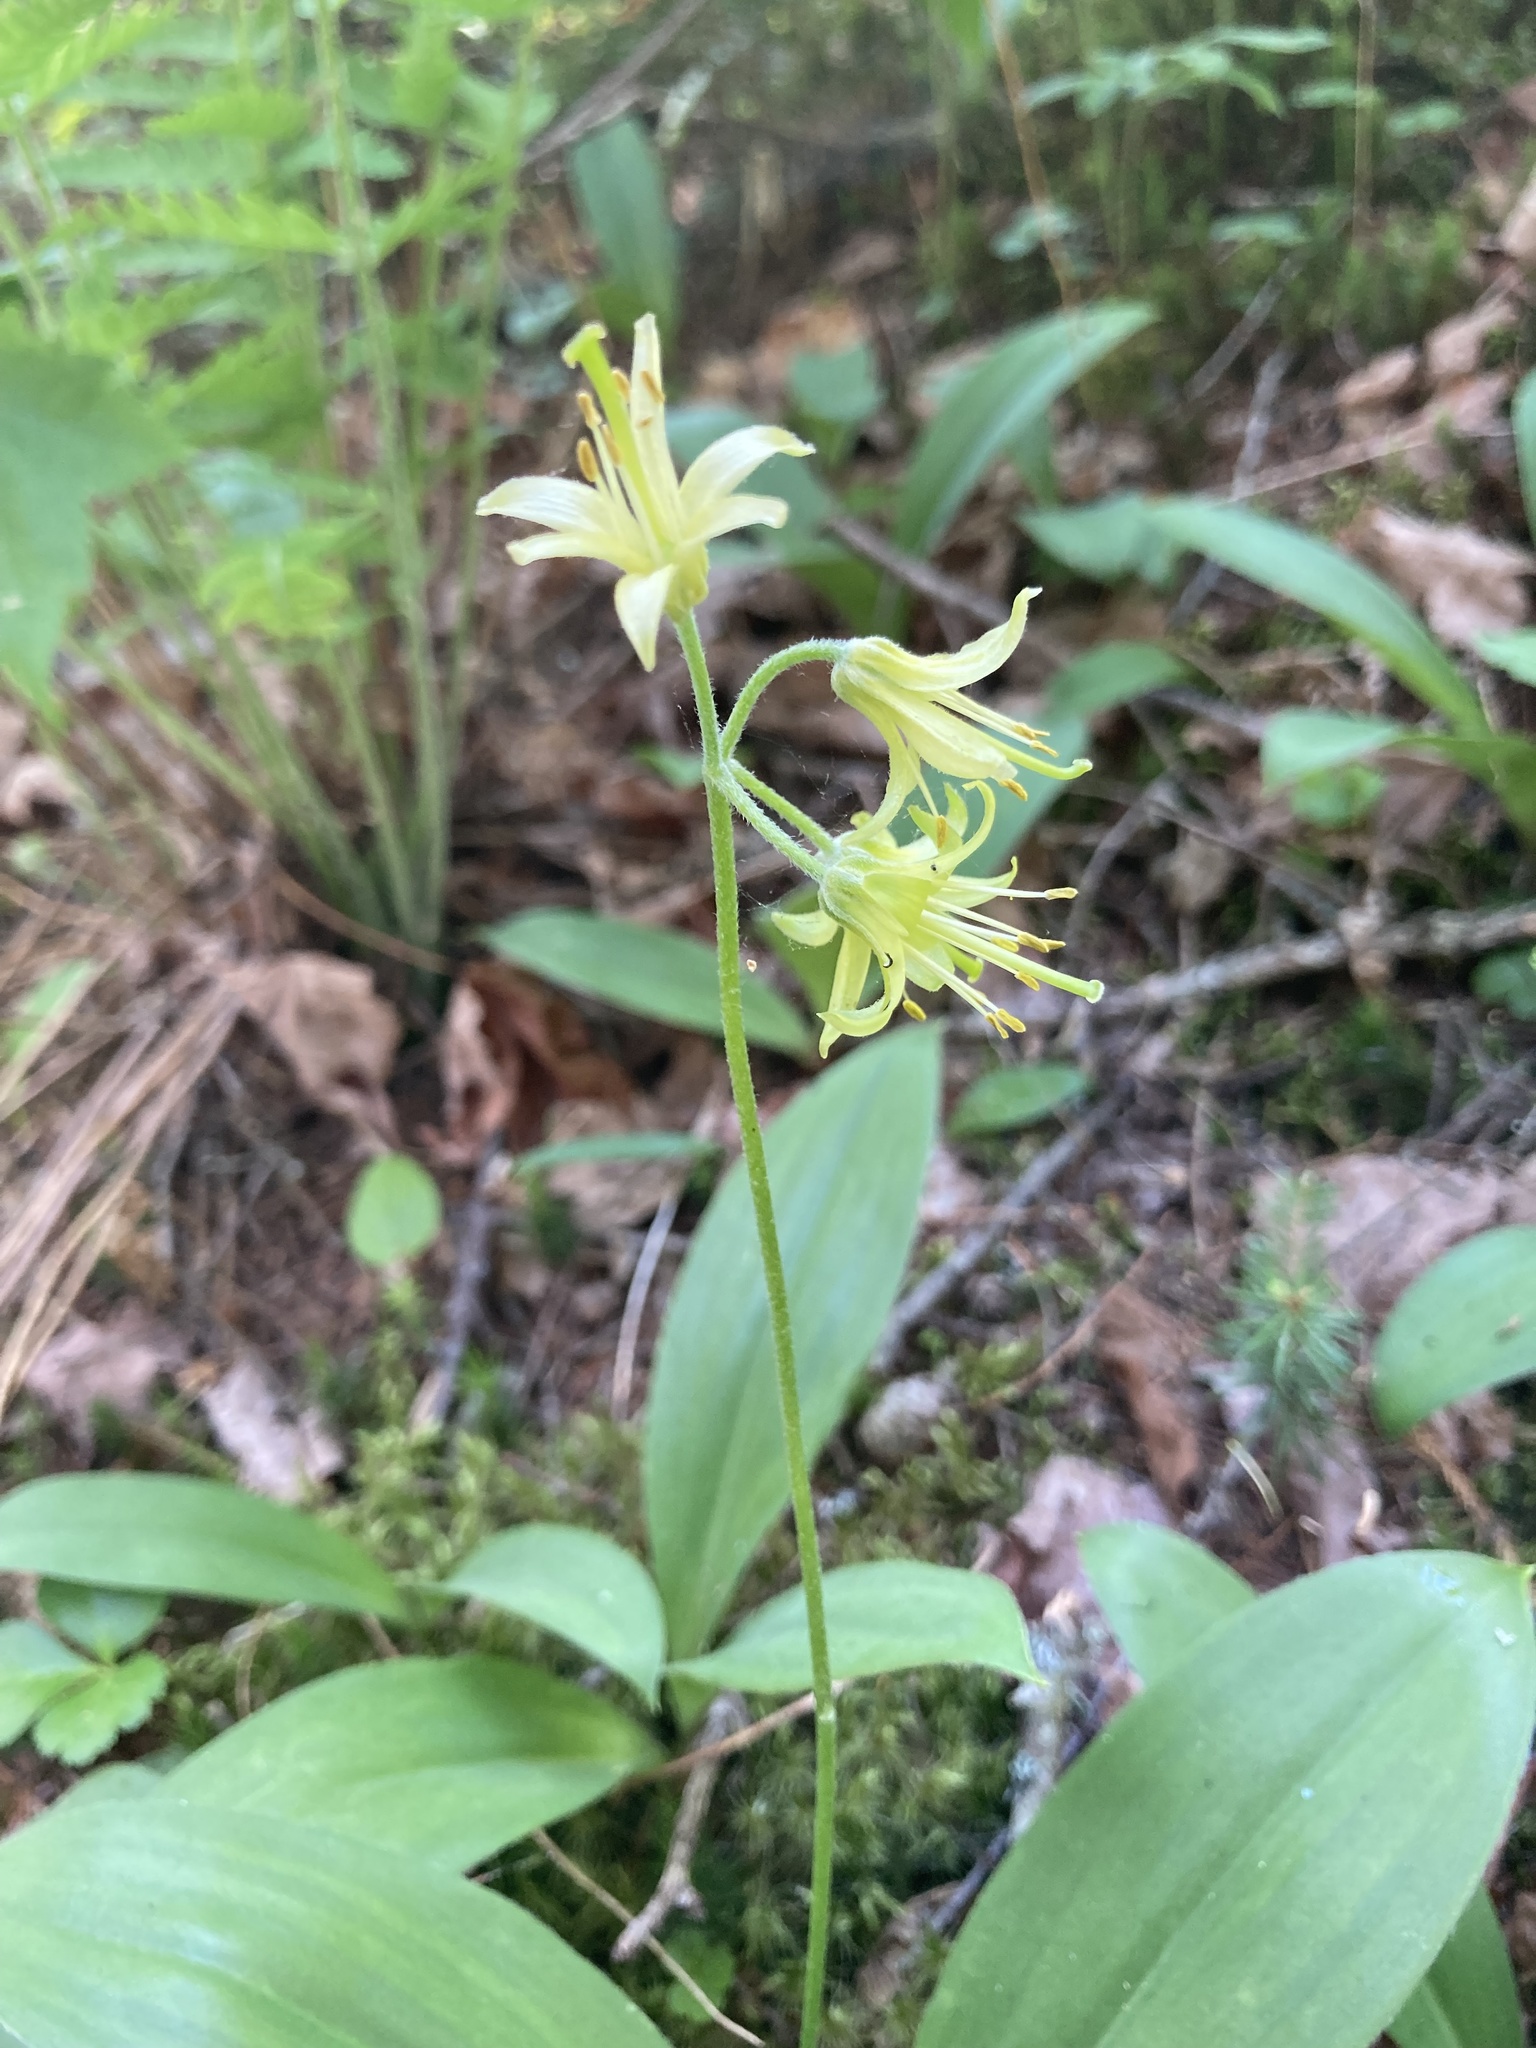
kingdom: Plantae
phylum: Tracheophyta
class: Liliopsida
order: Liliales
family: Liliaceae
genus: Clintonia
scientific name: Clintonia borealis
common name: Yellow clintonia
